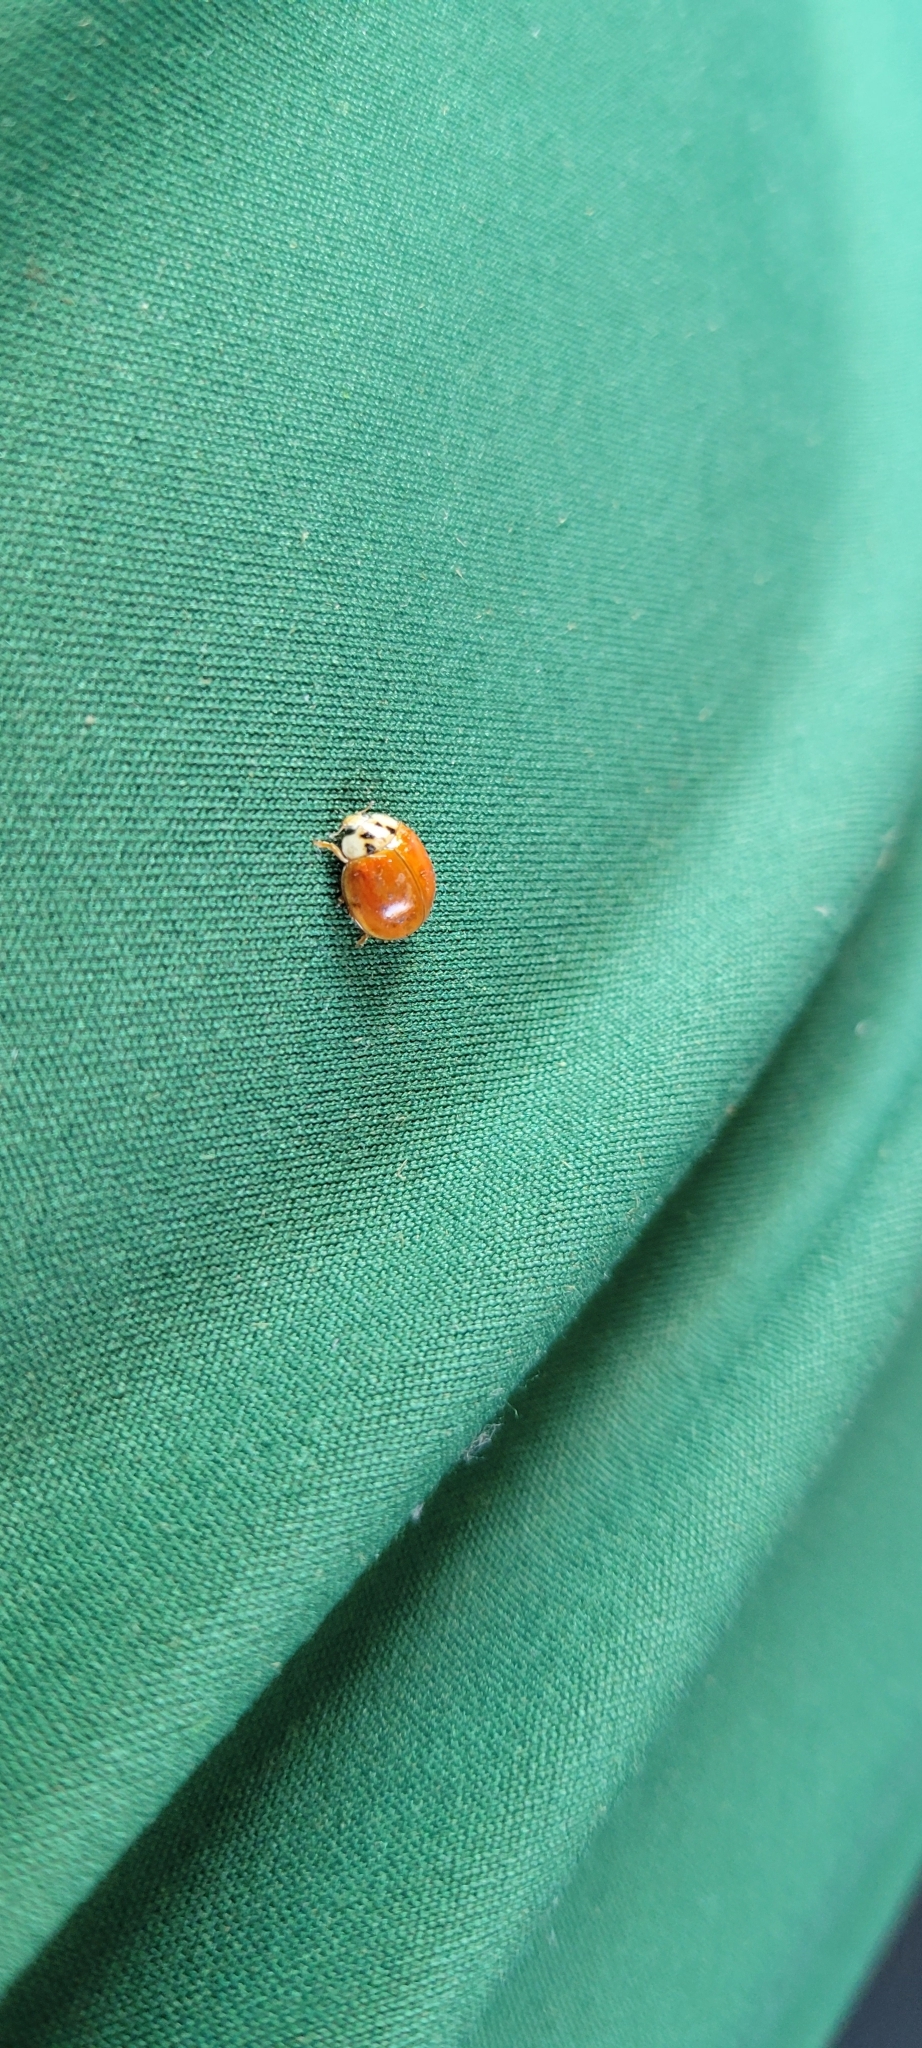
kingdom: Animalia
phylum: Arthropoda
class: Insecta
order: Coleoptera
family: Coccinellidae
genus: Harmonia
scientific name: Harmonia axyridis
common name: Harlequin ladybird
